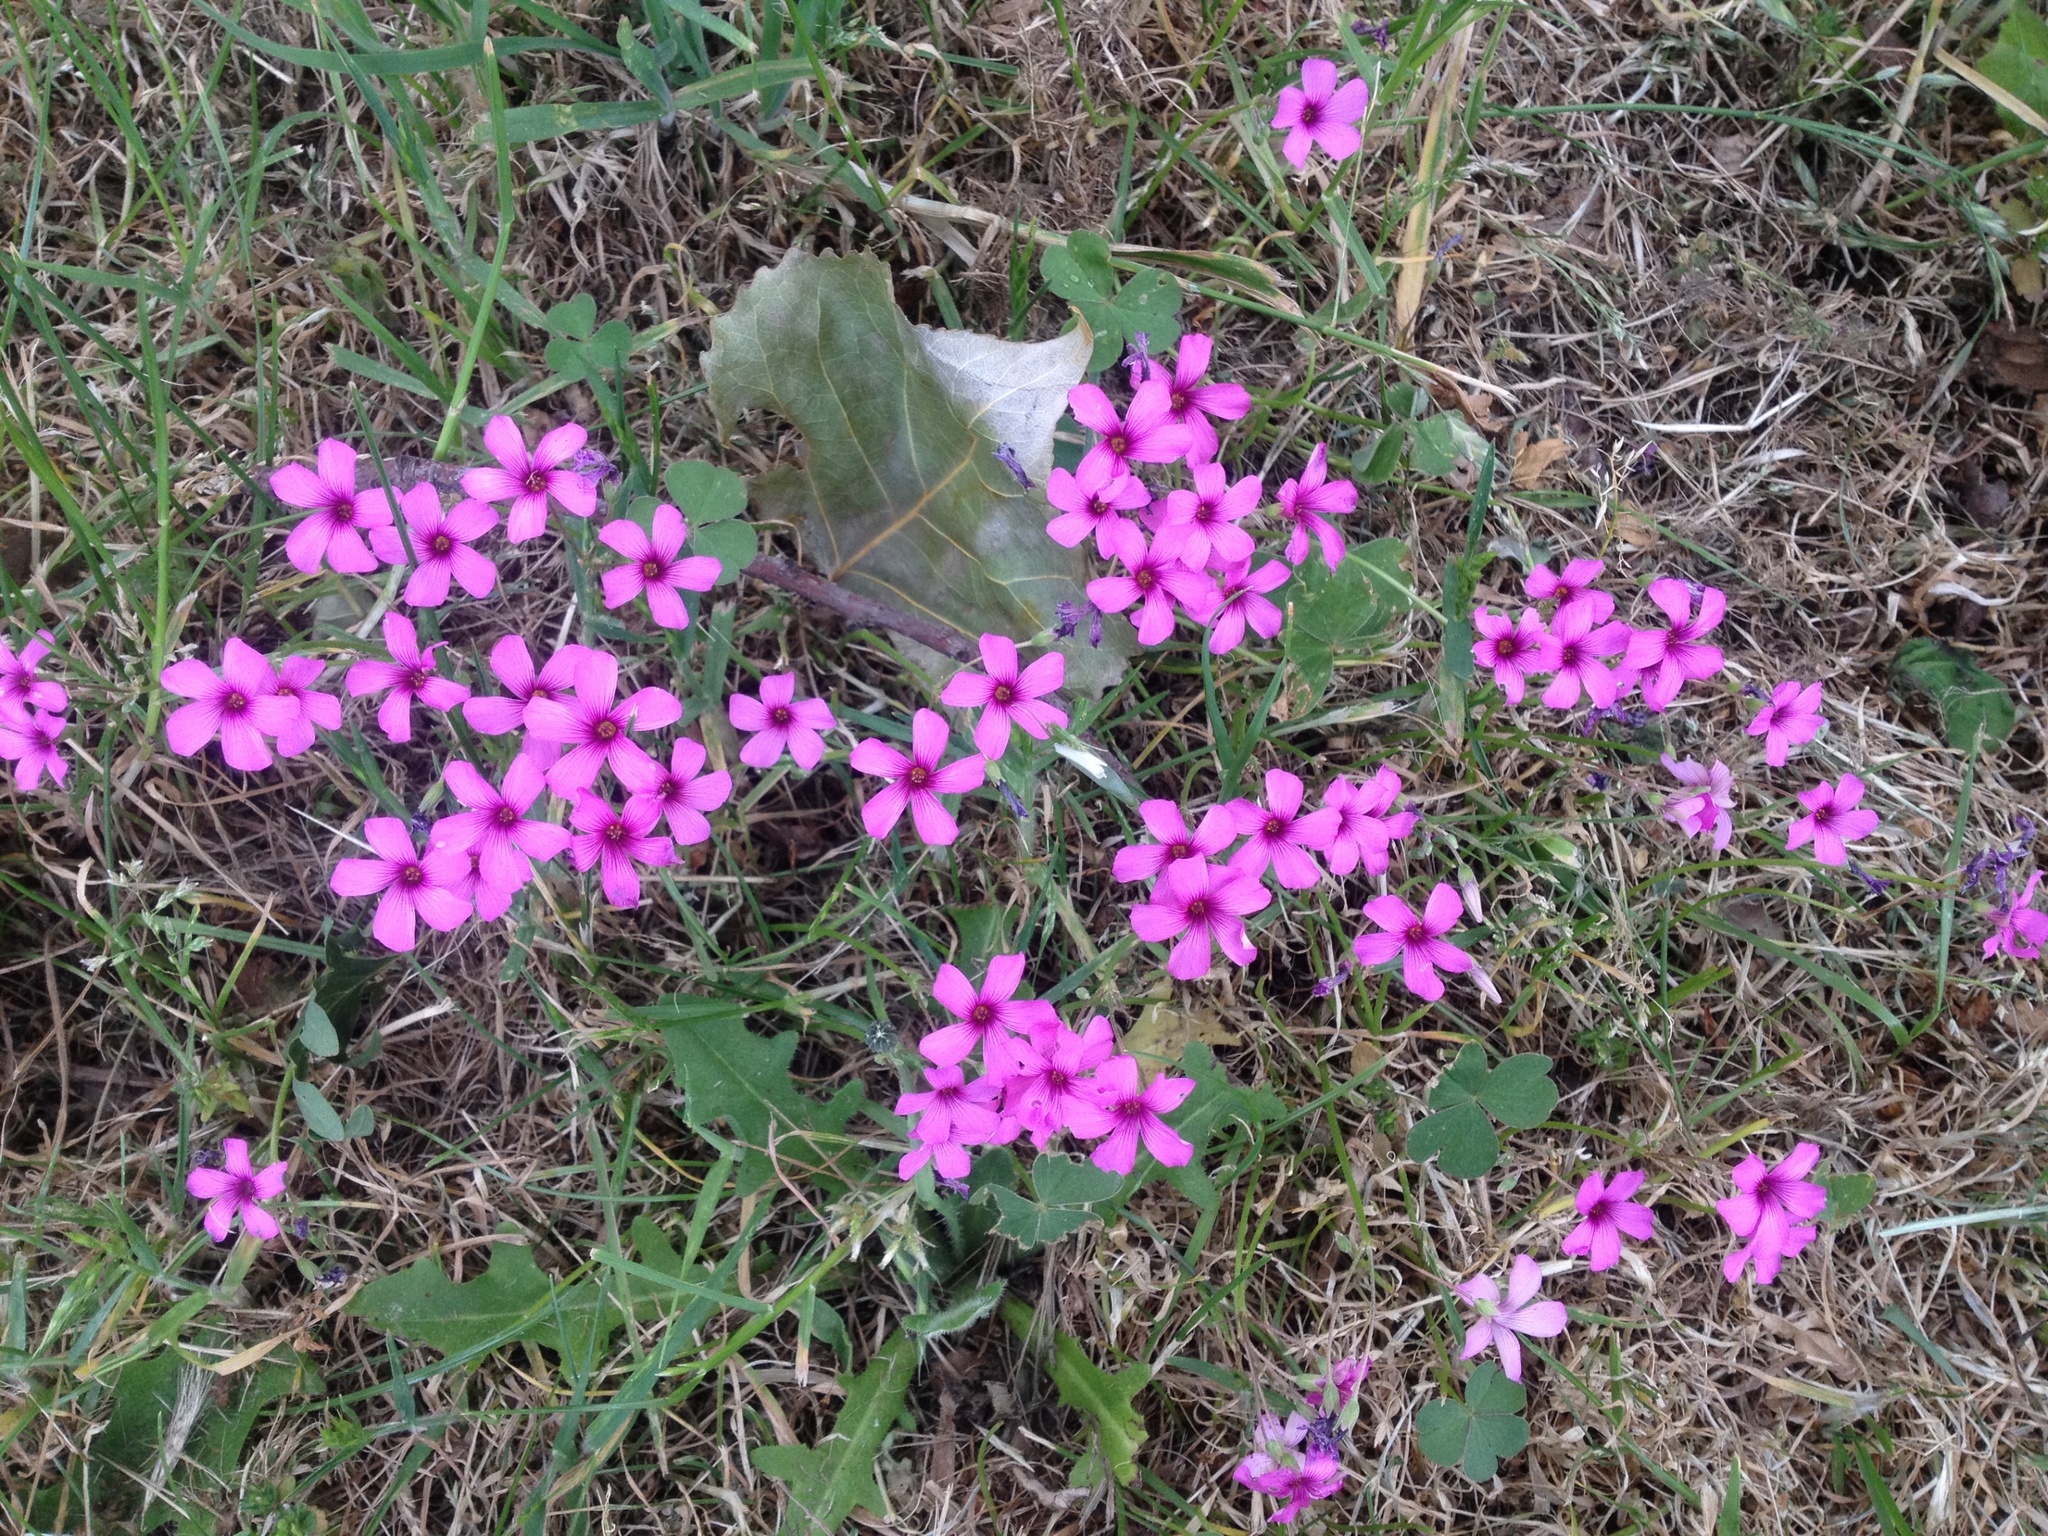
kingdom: Plantae
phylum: Tracheophyta
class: Magnoliopsida
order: Oxalidales
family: Oxalidaceae
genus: Oxalis
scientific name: Oxalis articulata
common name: Pink-sorrel
